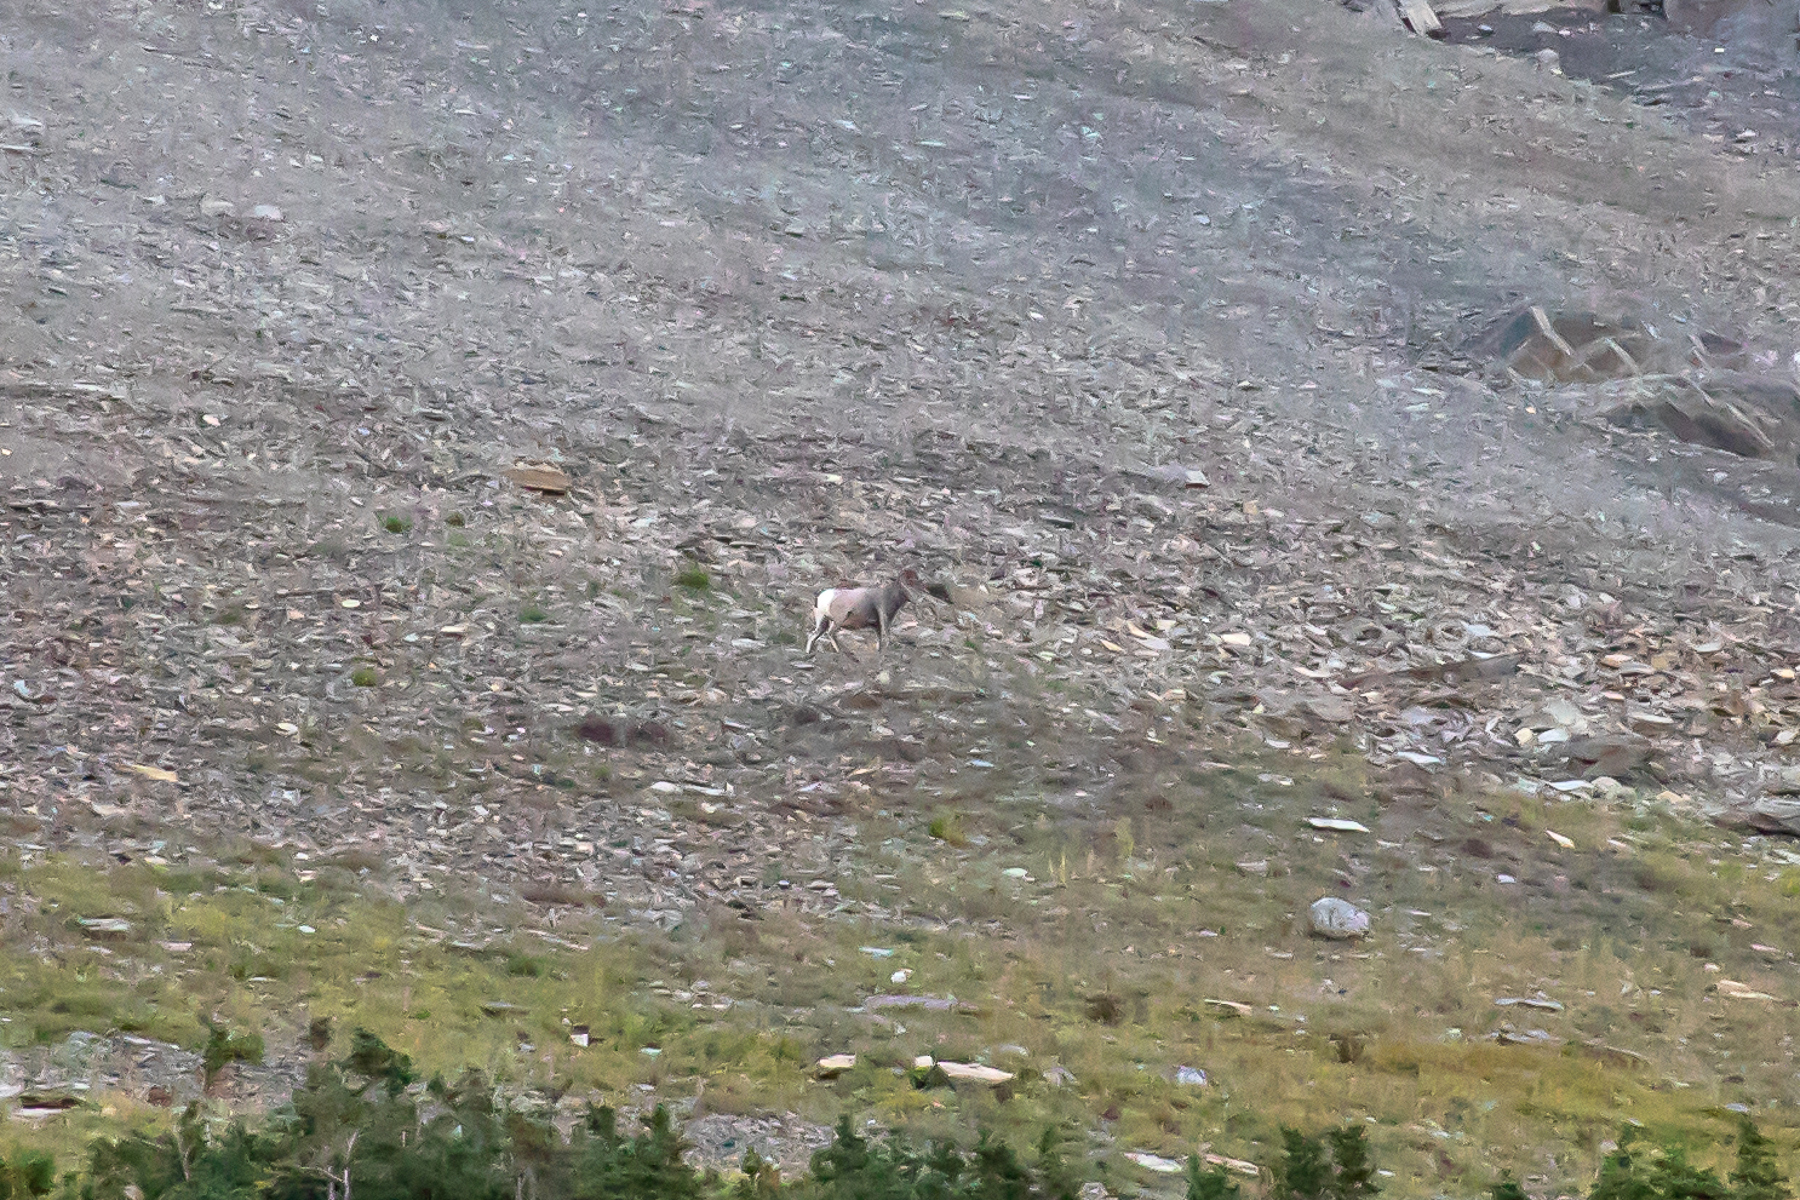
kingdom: Animalia
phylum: Chordata
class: Mammalia
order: Artiodactyla
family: Bovidae
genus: Ovis
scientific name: Ovis canadensis
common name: Bighorn sheep
